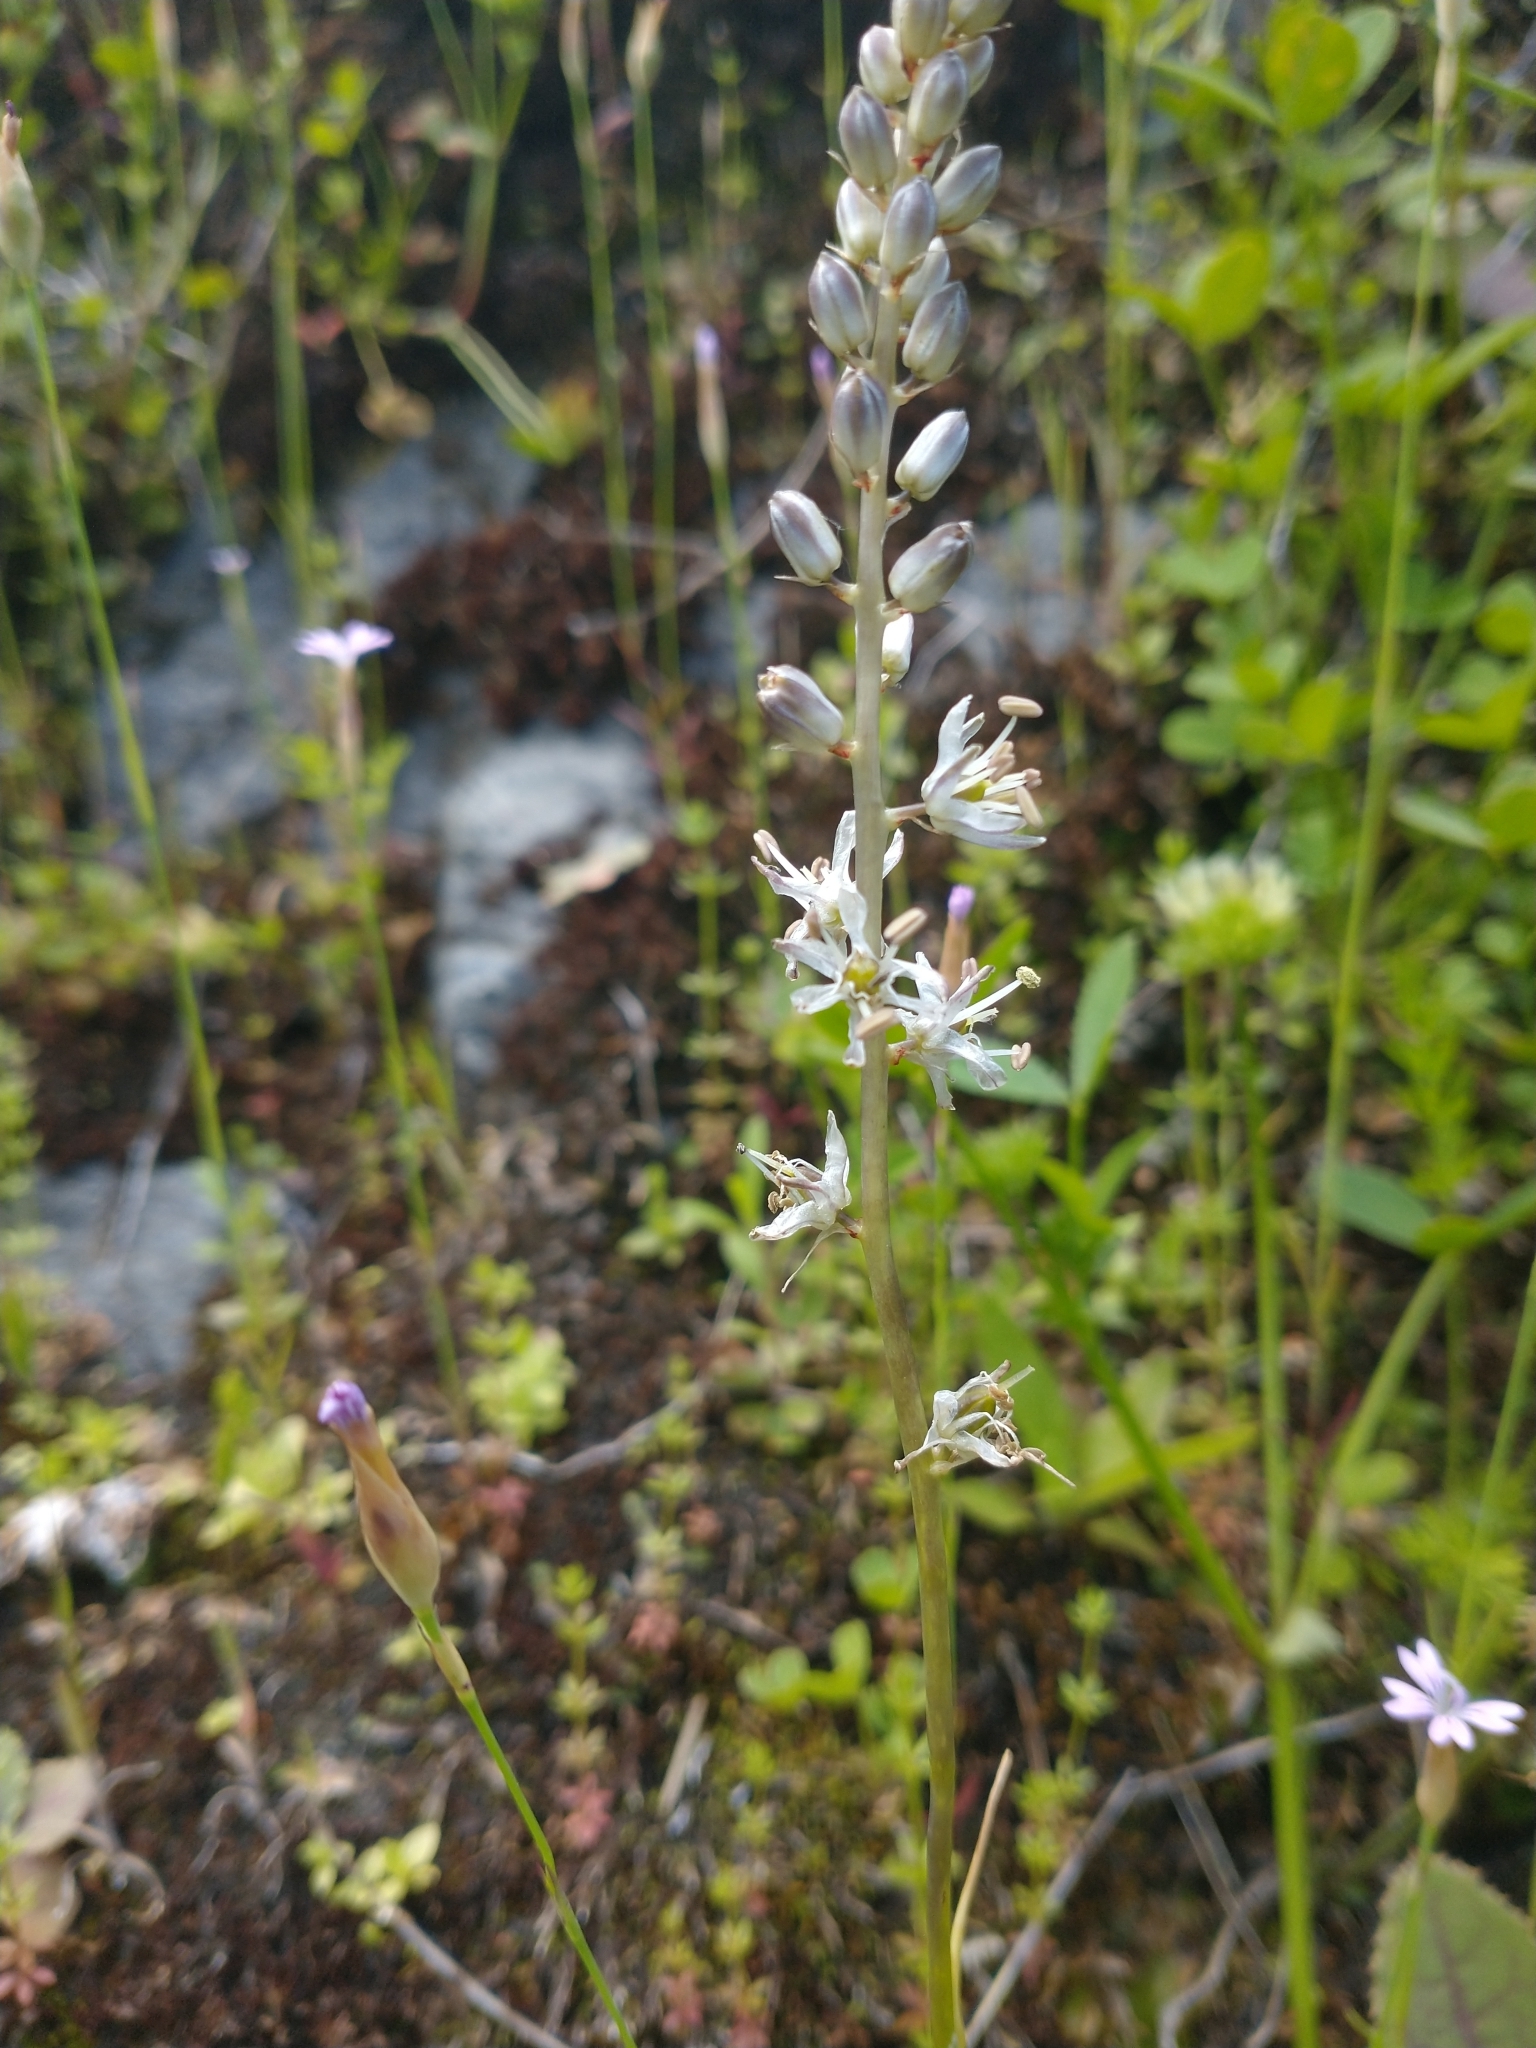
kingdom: Plantae
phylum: Tracheophyta
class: Liliopsida
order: Asparagales
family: Asparagaceae
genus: Hastingsia
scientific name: Hastingsia alba
